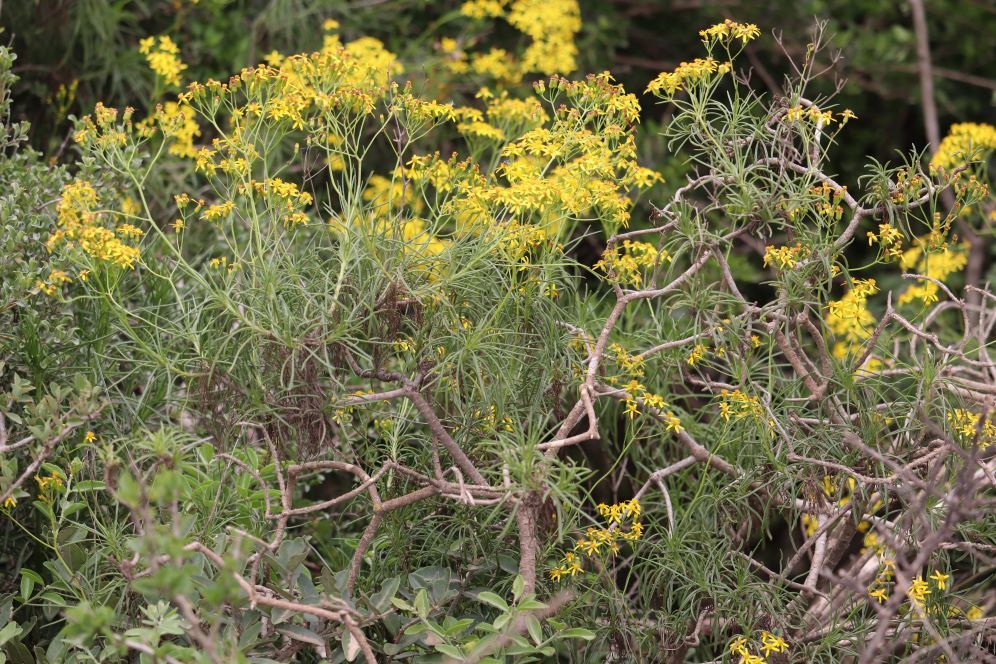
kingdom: Plantae
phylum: Tracheophyta
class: Magnoliopsida
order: Asterales
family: Asteraceae
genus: Senecio
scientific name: Senecio linifolius
